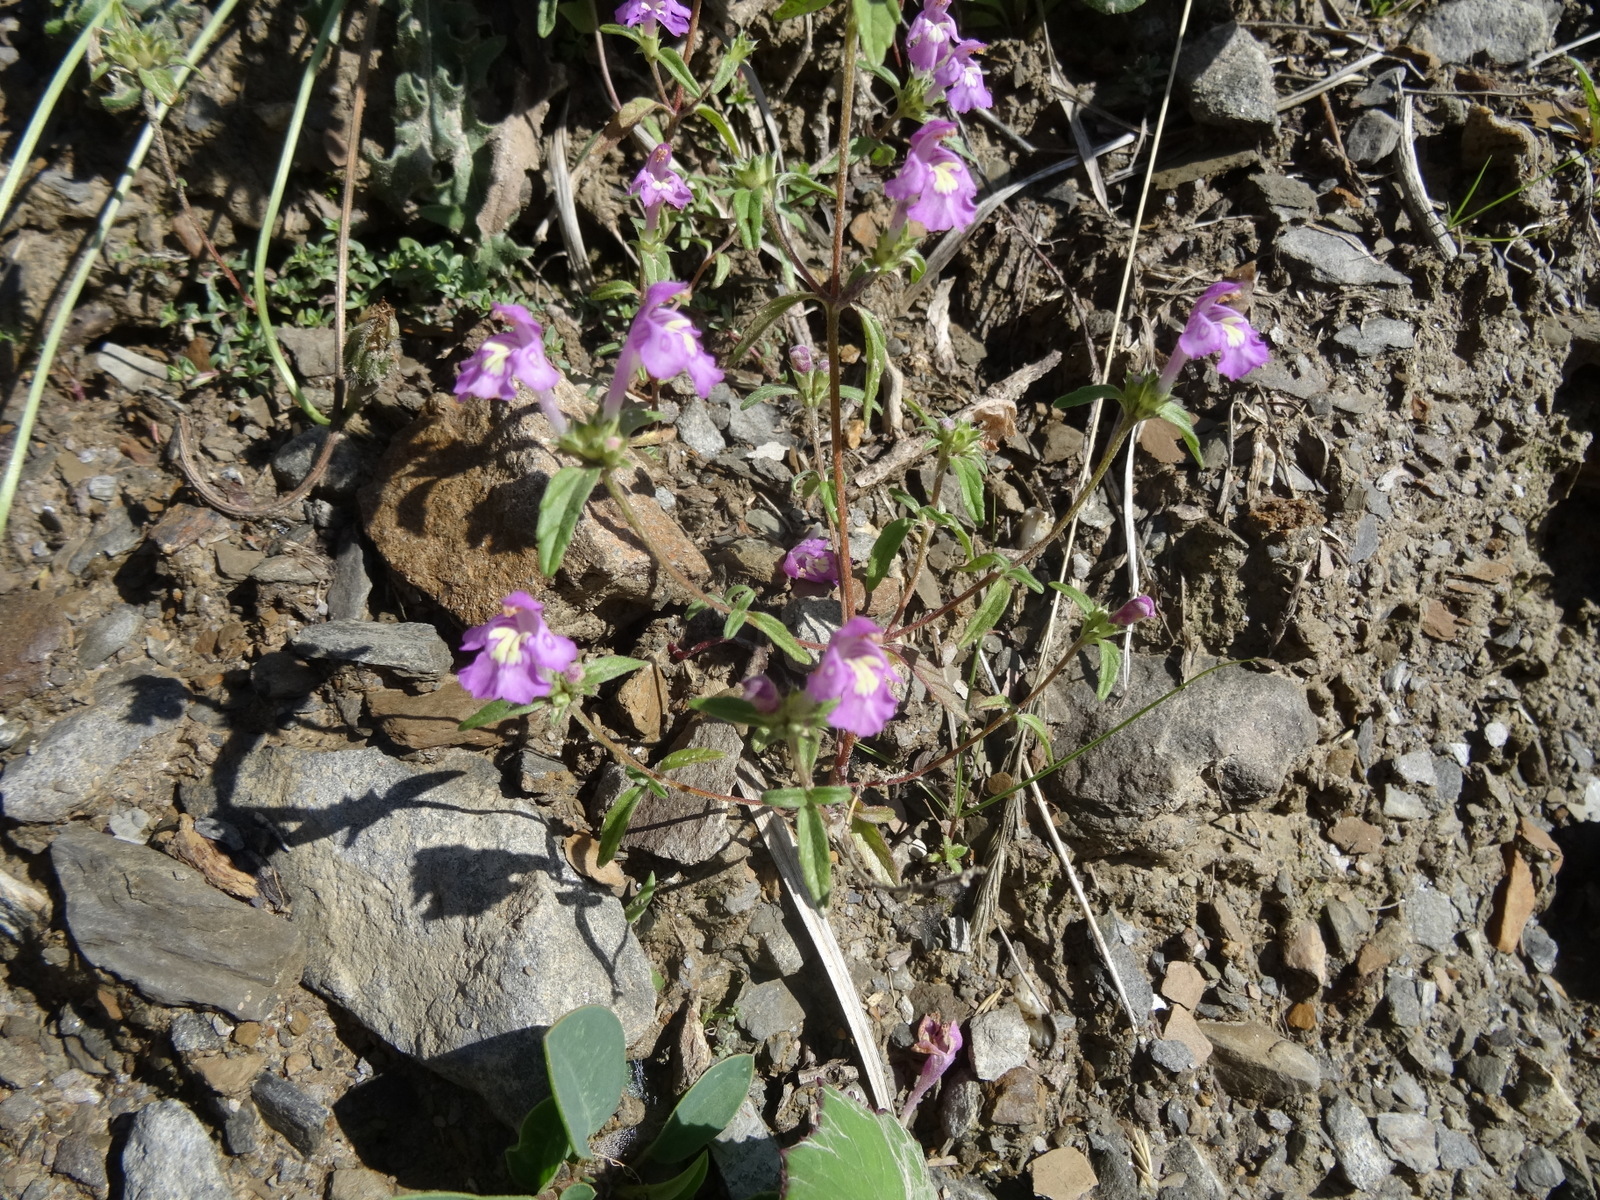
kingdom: Plantae
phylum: Tracheophyta
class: Magnoliopsida
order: Lamiales
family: Lamiaceae
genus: Galeopsis
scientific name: Galeopsis angustifolia
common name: Red hemp-nettle
